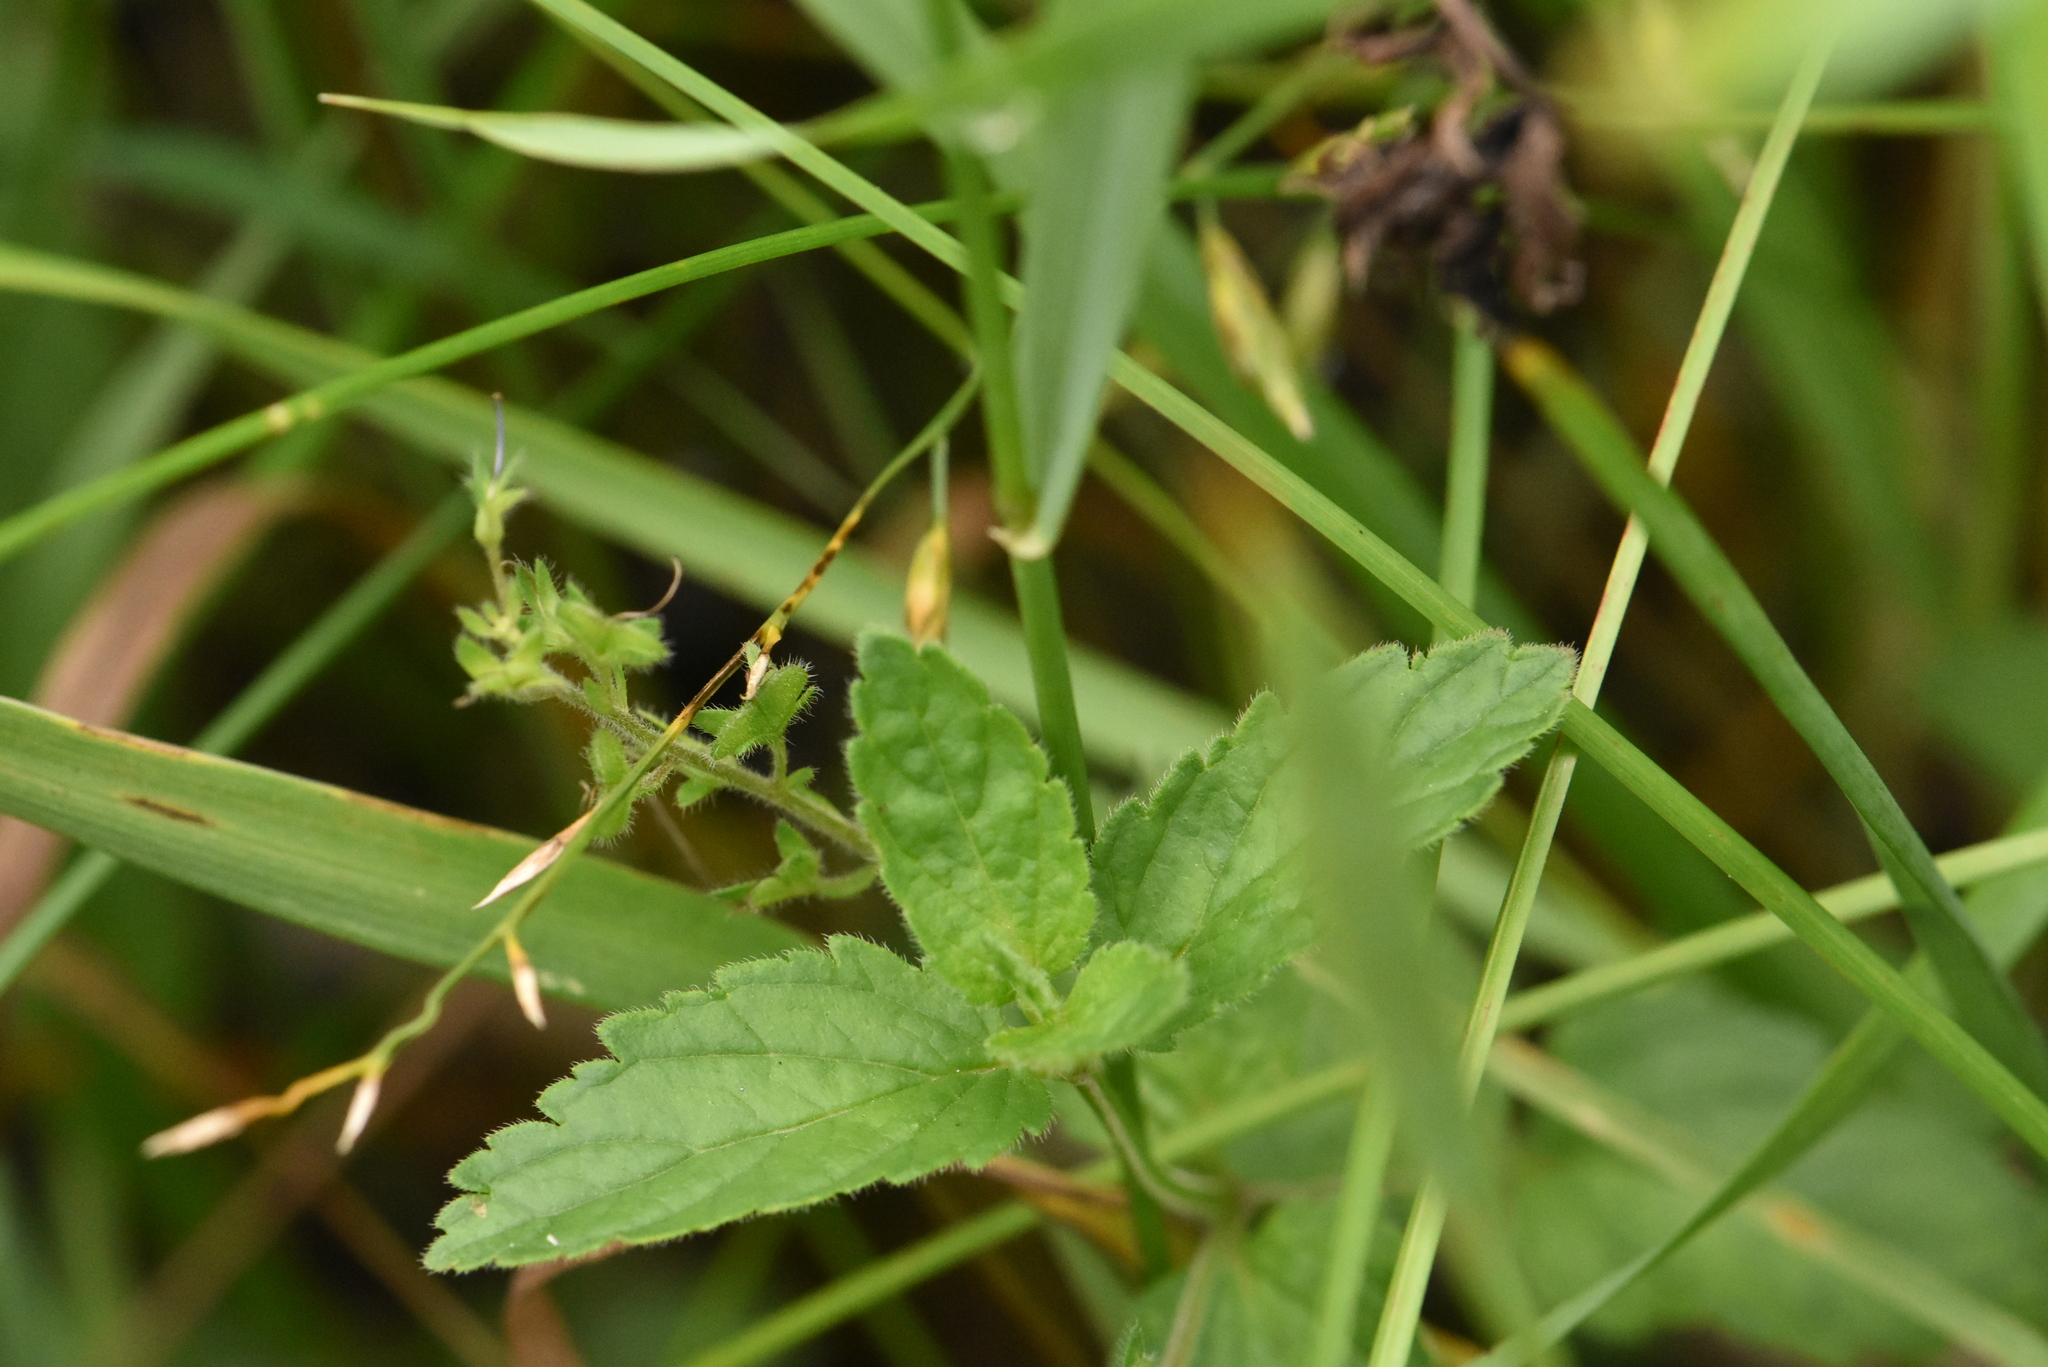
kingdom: Plantae
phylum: Tracheophyta
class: Magnoliopsida
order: Lamiales
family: Plantaginaceae
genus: Veronica
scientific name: Veronica chamaedrys
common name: Germander speedwell
